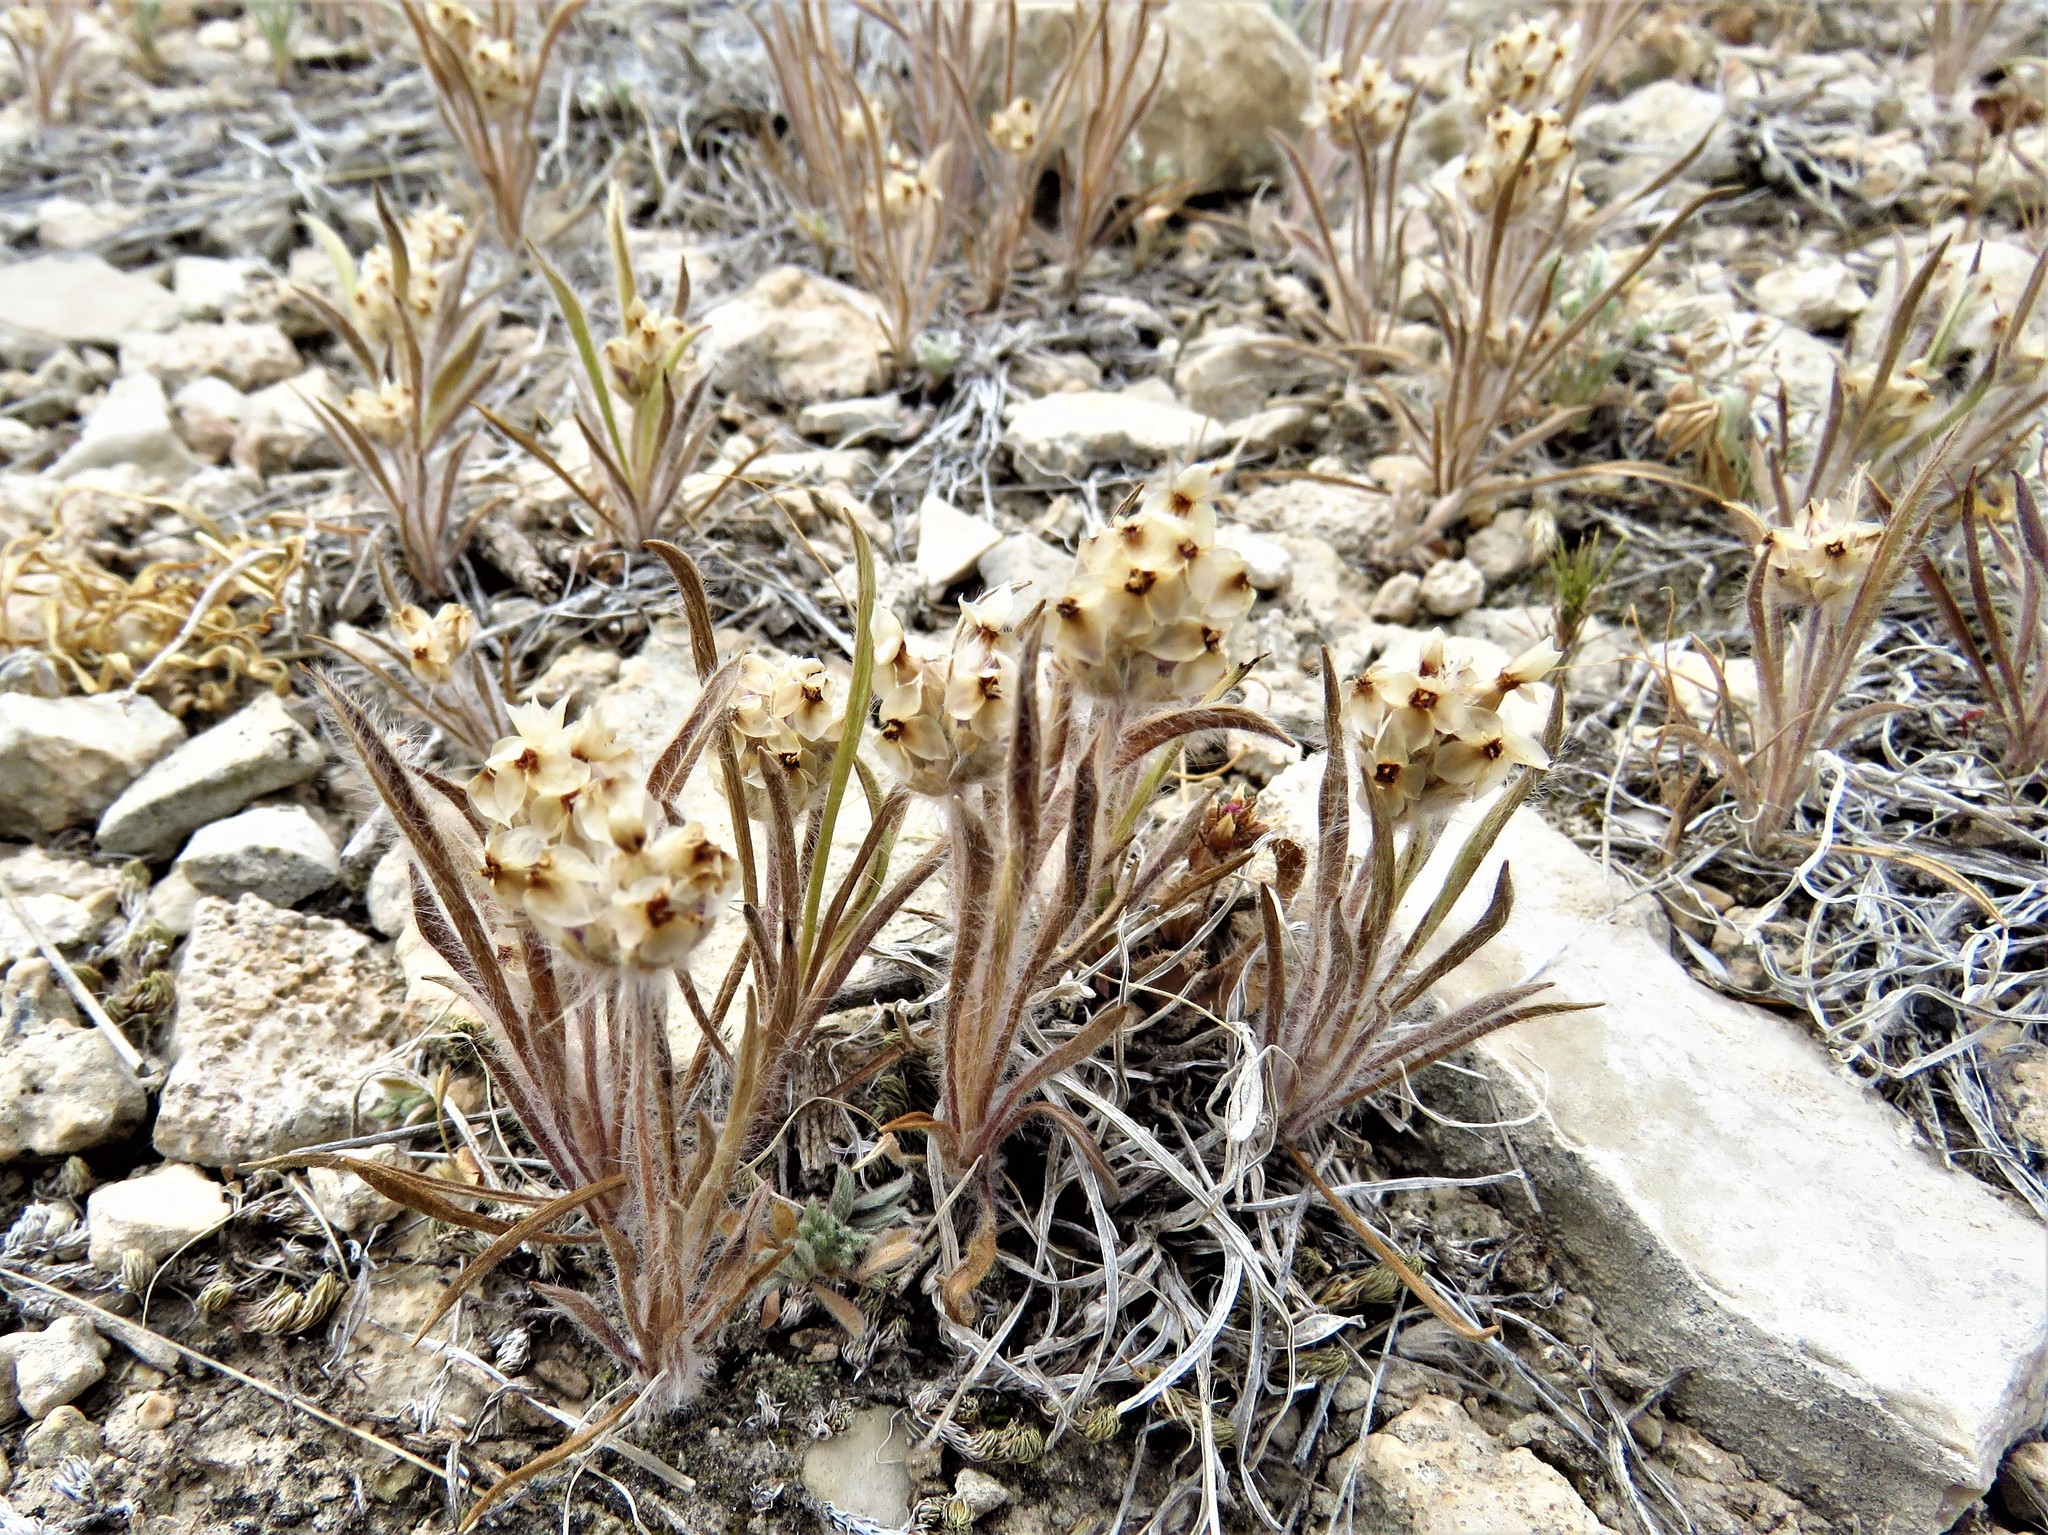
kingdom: Plantae
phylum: Tracheophyta
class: Magnoliopsida
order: Lamiales
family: Plantaginaceae
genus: Plantago
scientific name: Plantago helleri
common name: Heller's plantain
